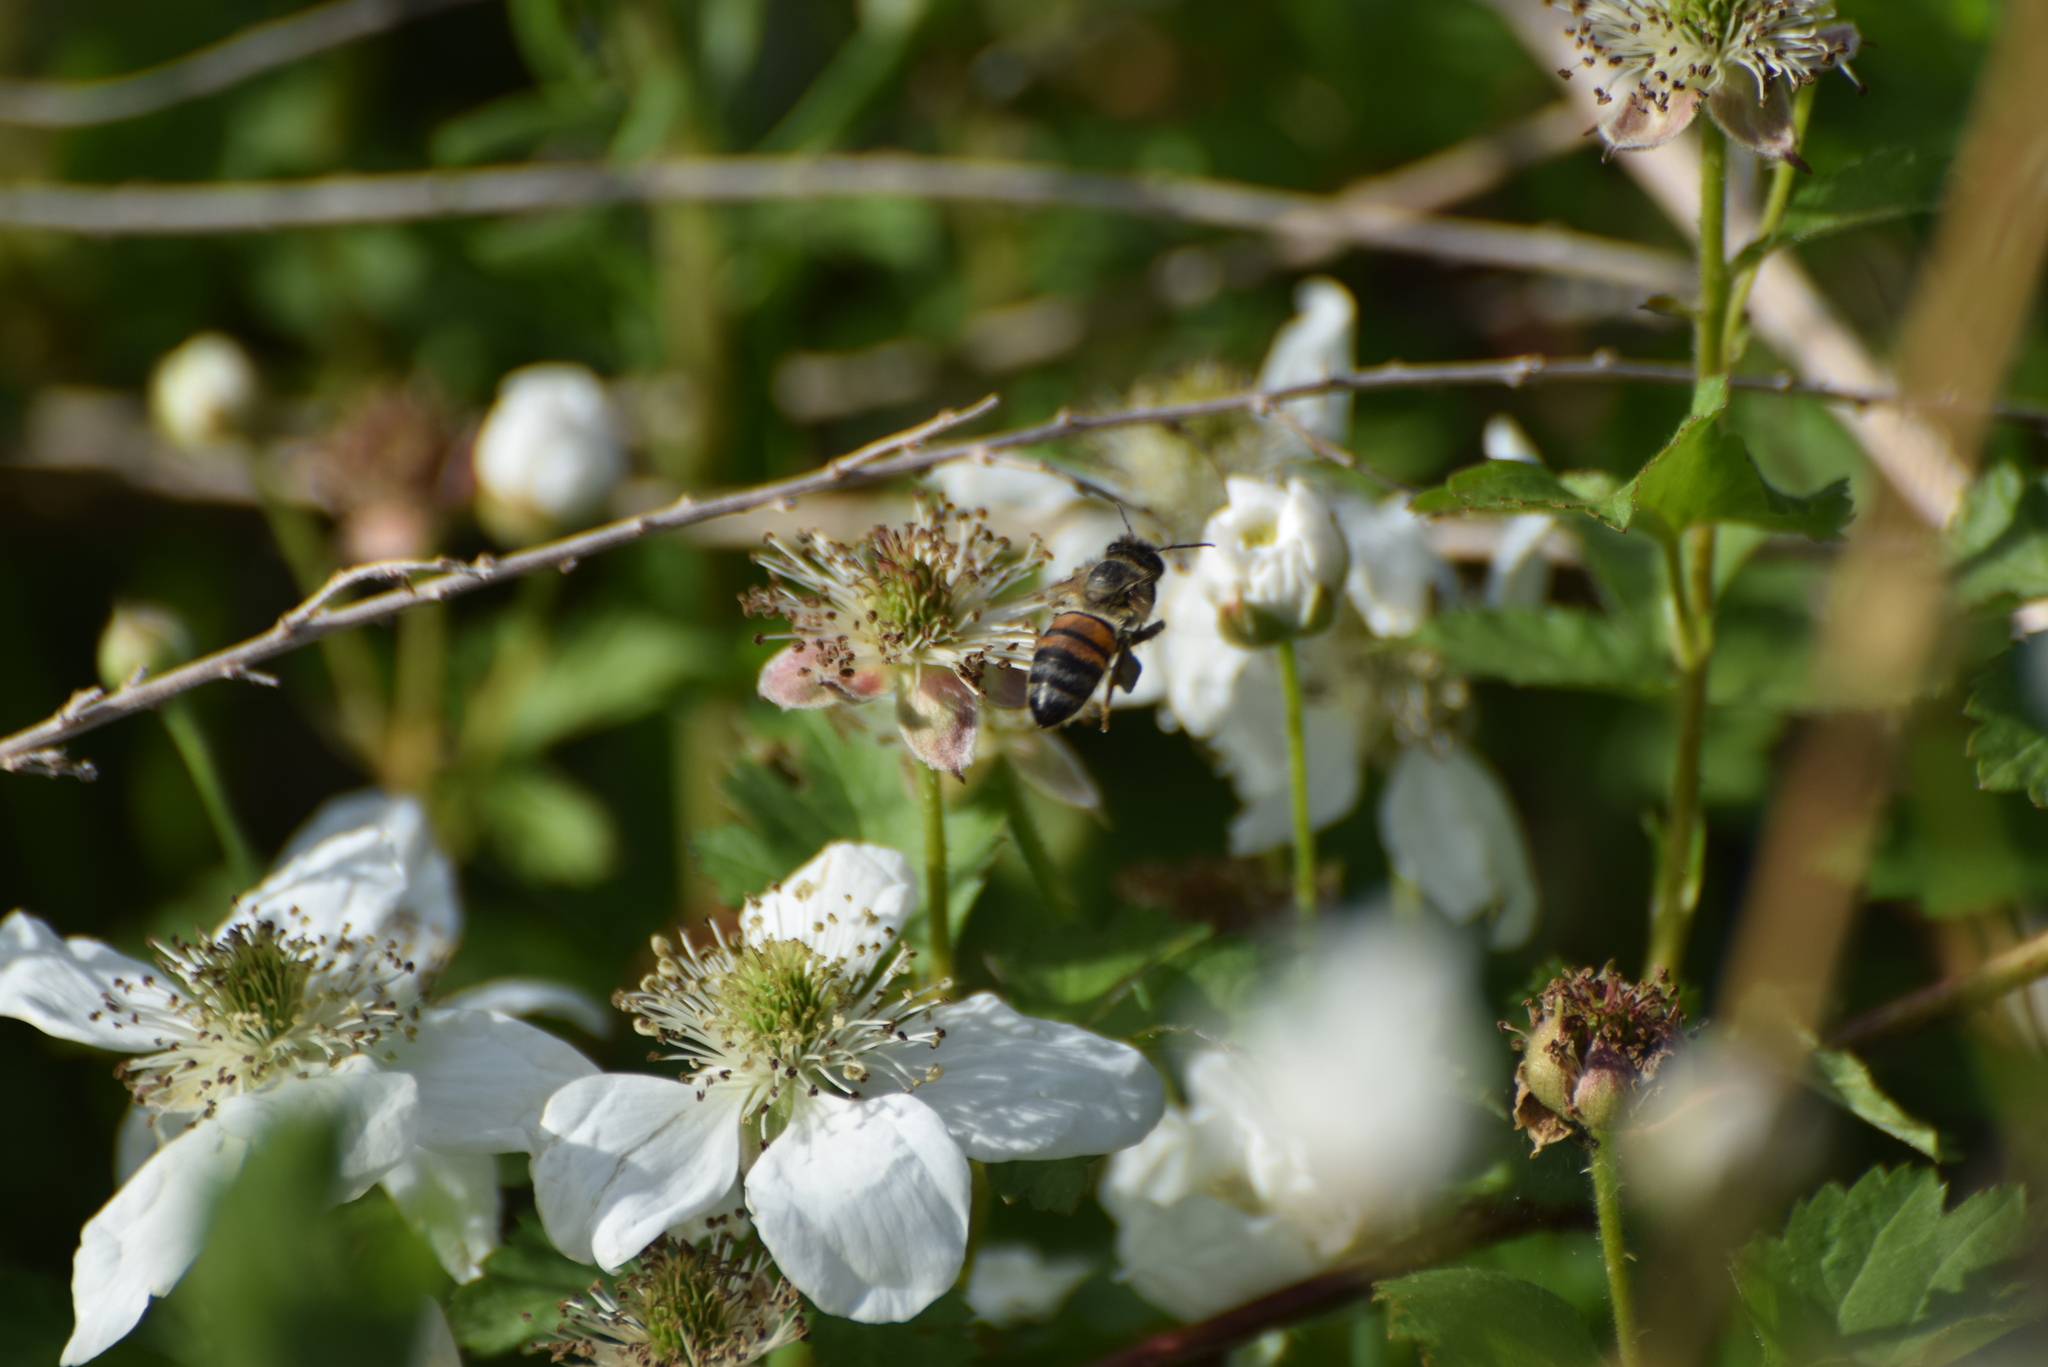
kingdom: Animalia
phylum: Arthropoda
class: Insecta
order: Hymenoptera
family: Apidae
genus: Apis
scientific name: Apis mellifera
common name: Honey bee
